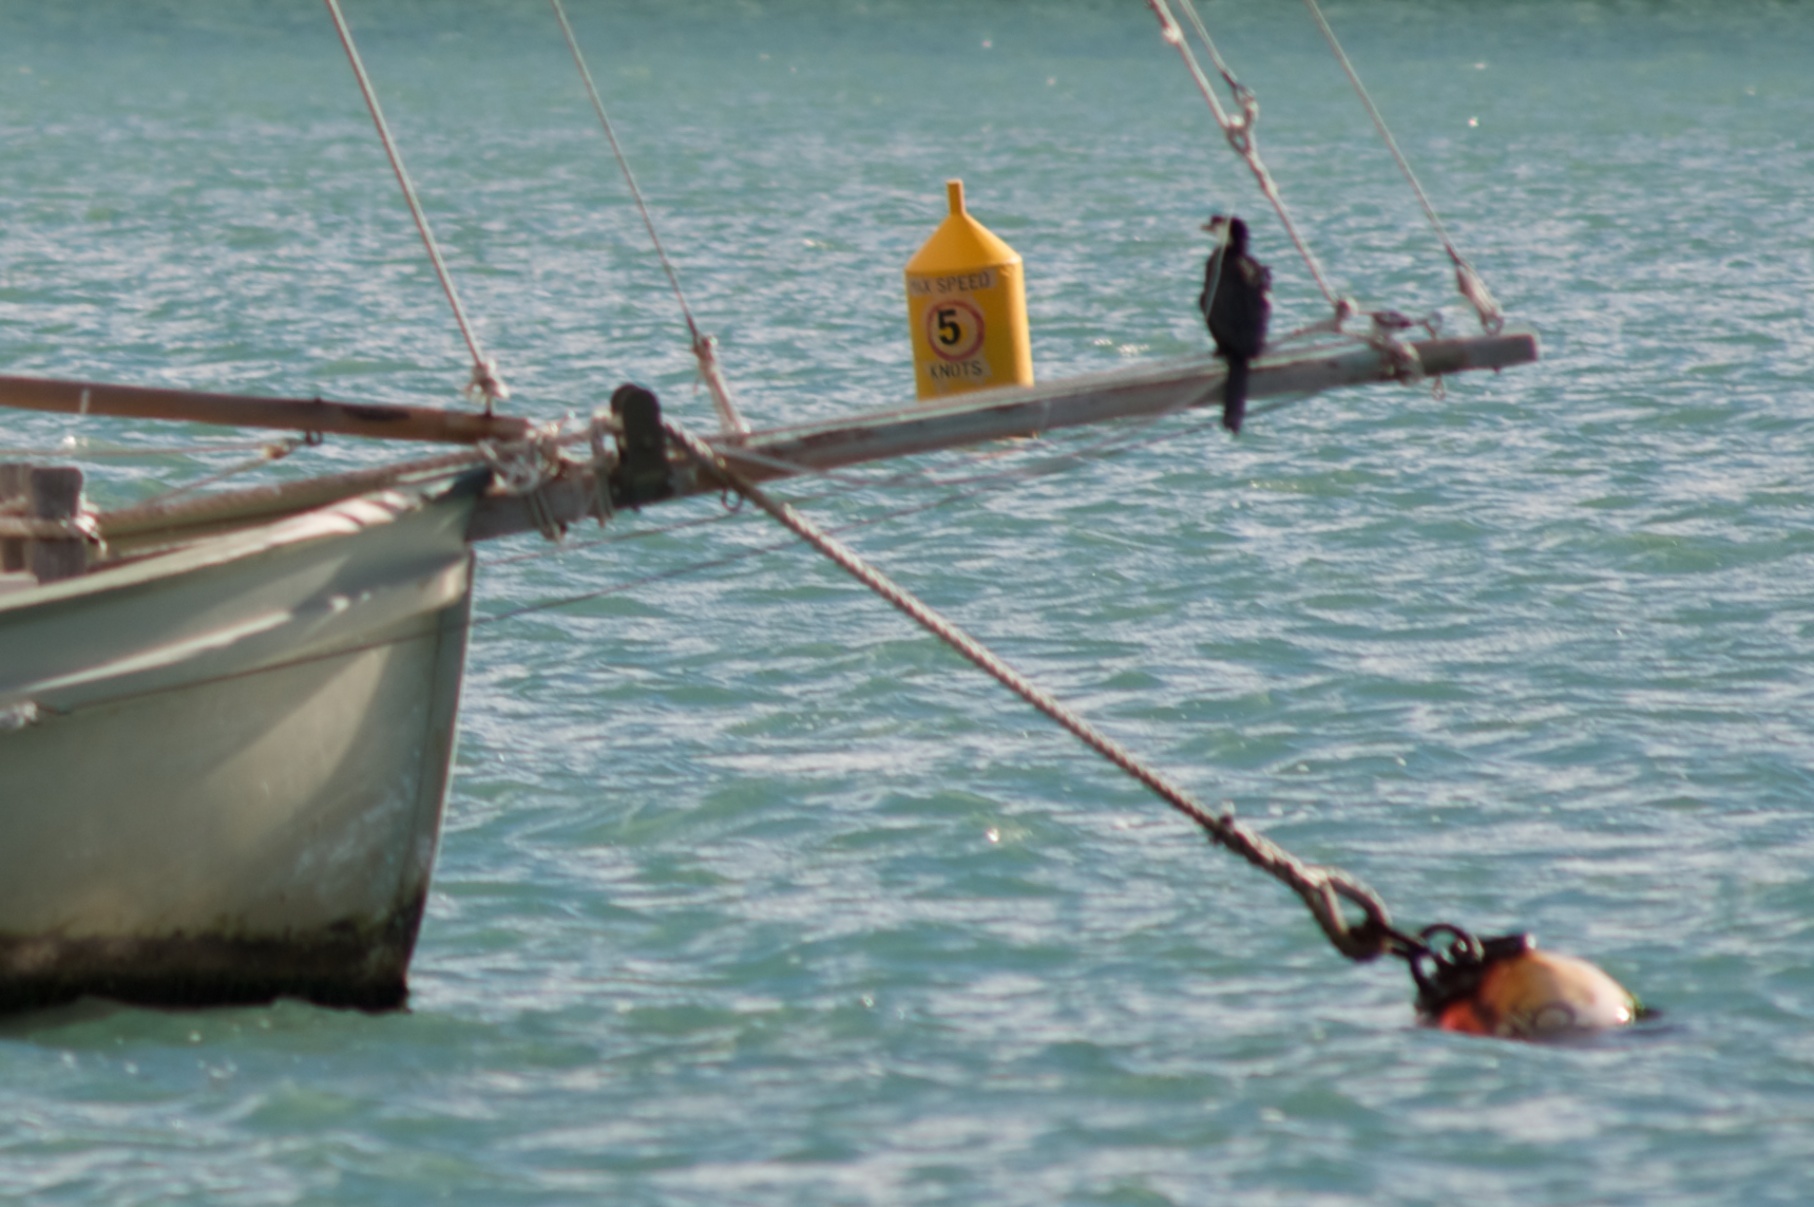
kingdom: Animalia
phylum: Chordata
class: Aves
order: Suliformes
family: Phalacrocoracidae
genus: Microcarbo
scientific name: Microcarbo melanoleucos
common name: Little pied cormorant
